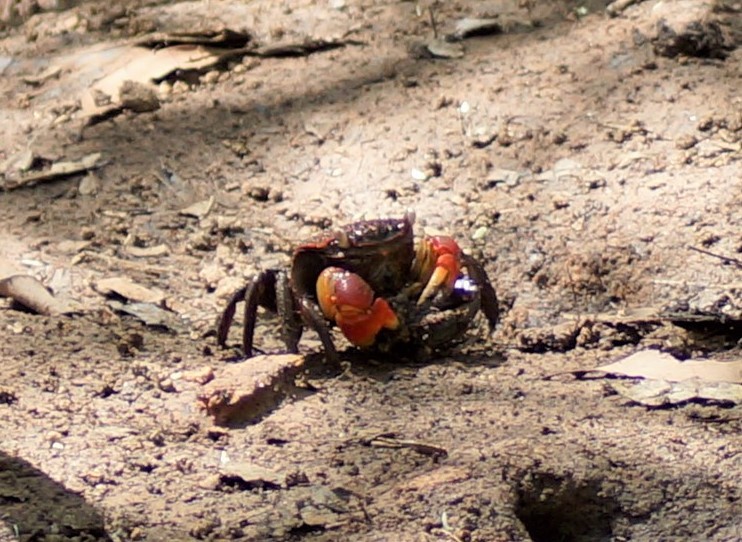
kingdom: Animalia
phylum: Arthropoda
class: Malacostraca
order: Decapoda
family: Sesarmidae
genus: Neosarmatium
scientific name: Neosarmatium
